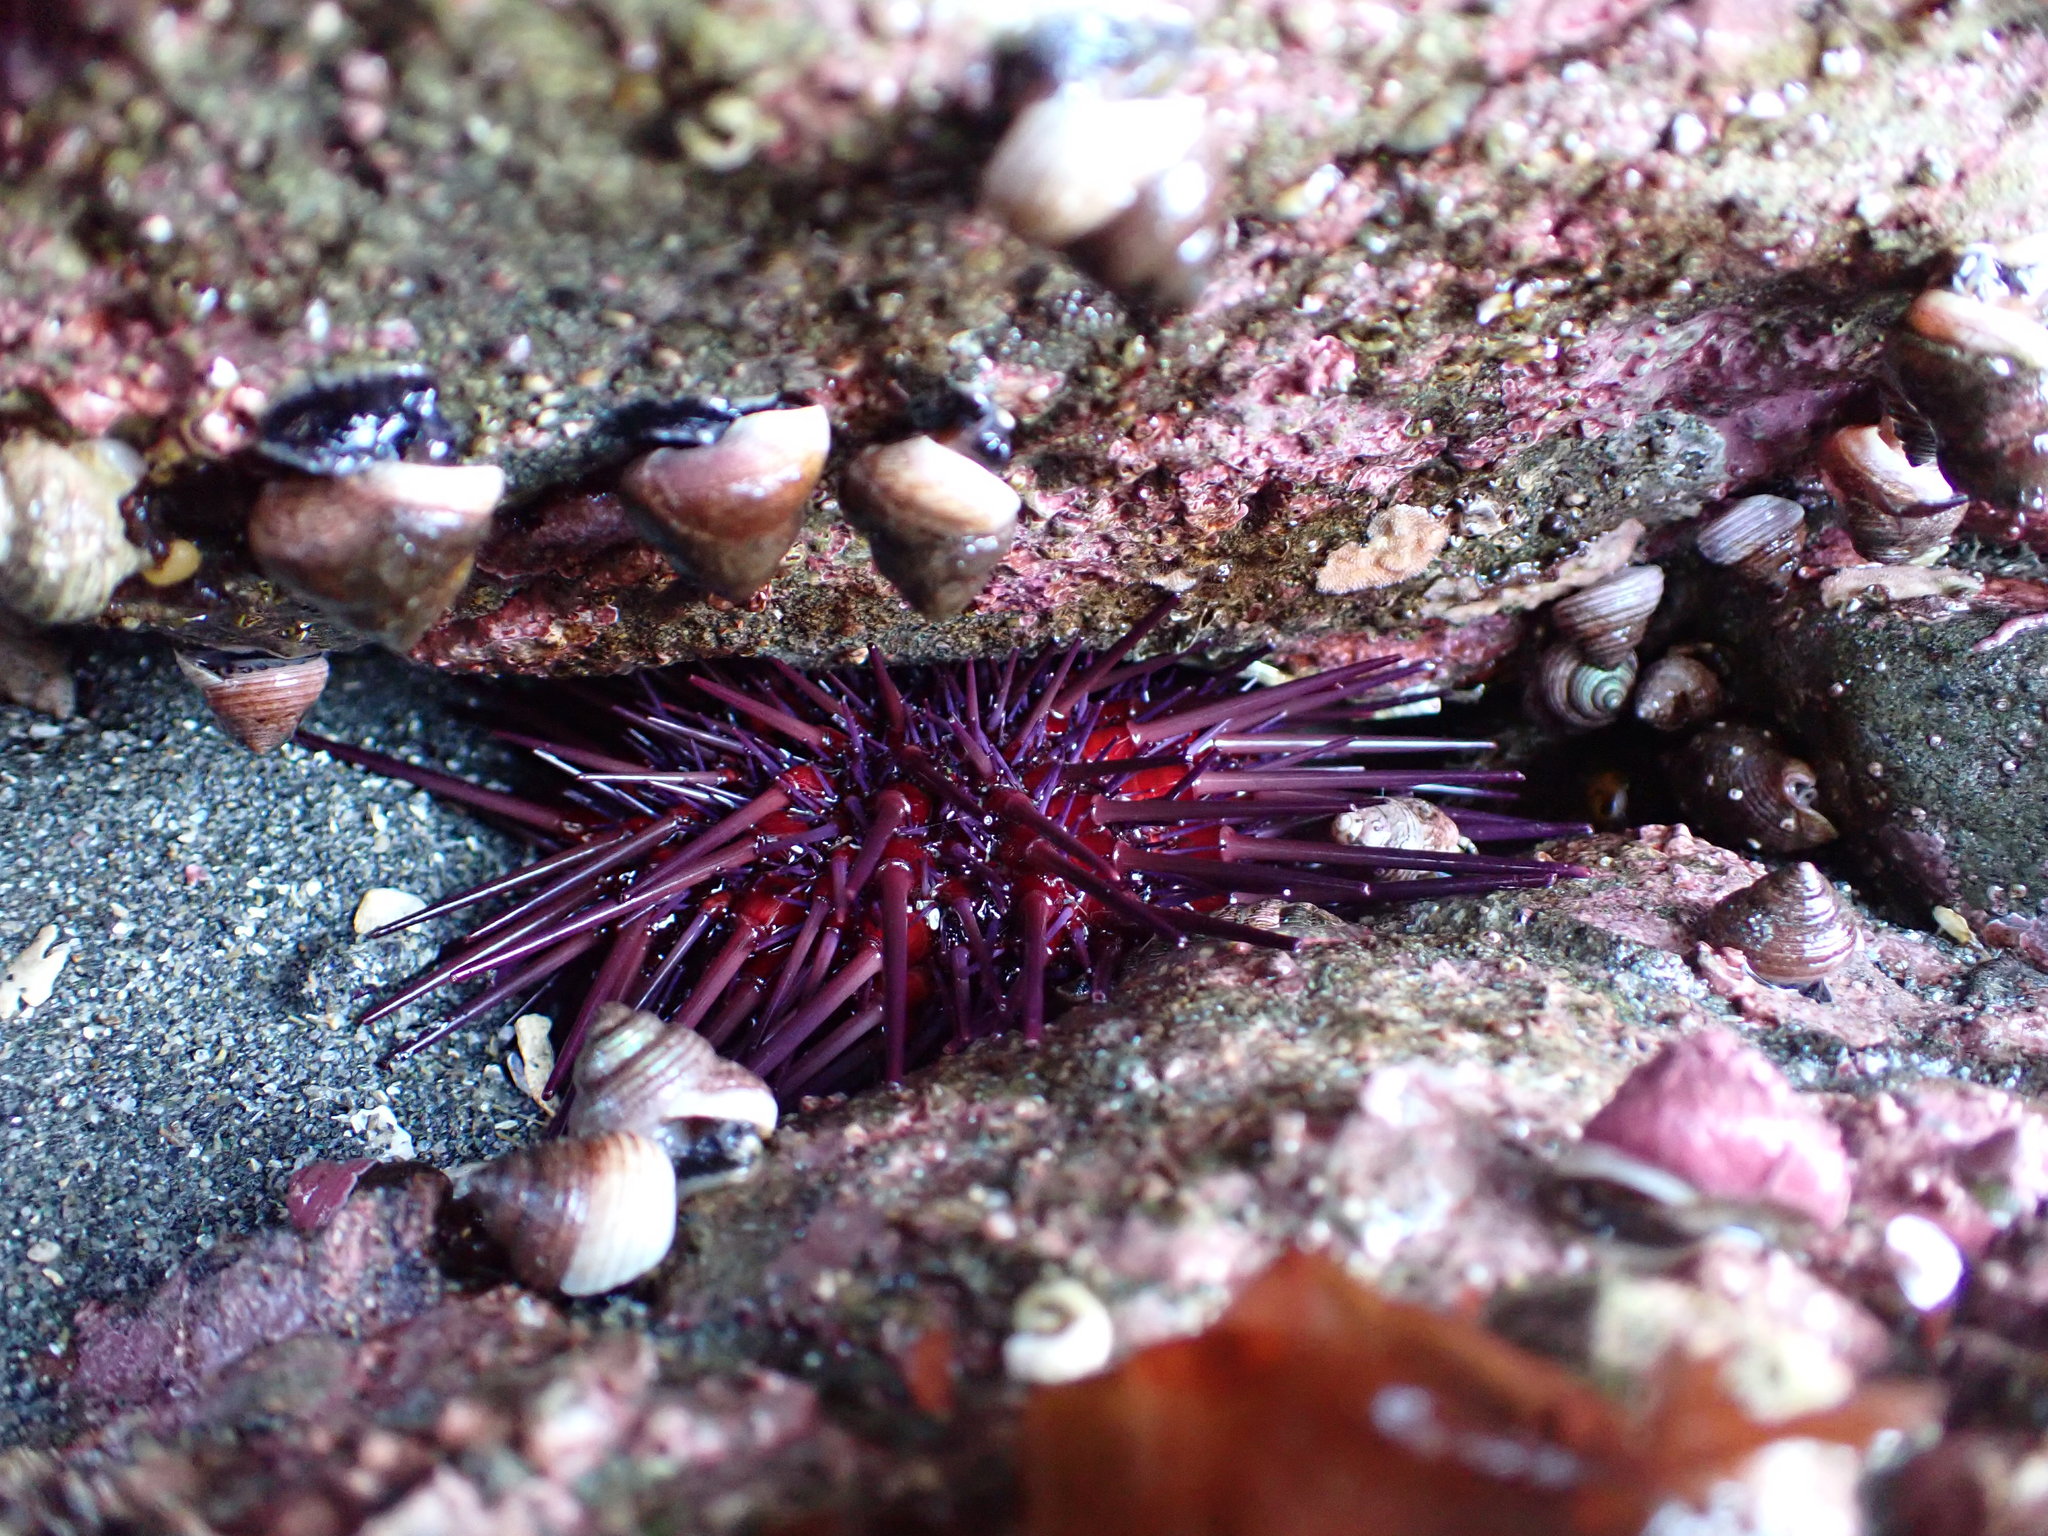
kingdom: Animalia
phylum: Echinodermata
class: Echinoidea
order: Camarodonta
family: Strongylocentrotidae
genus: Mesocentrotus
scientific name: Mesocentrotus franciscanus
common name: Red sea urchin
